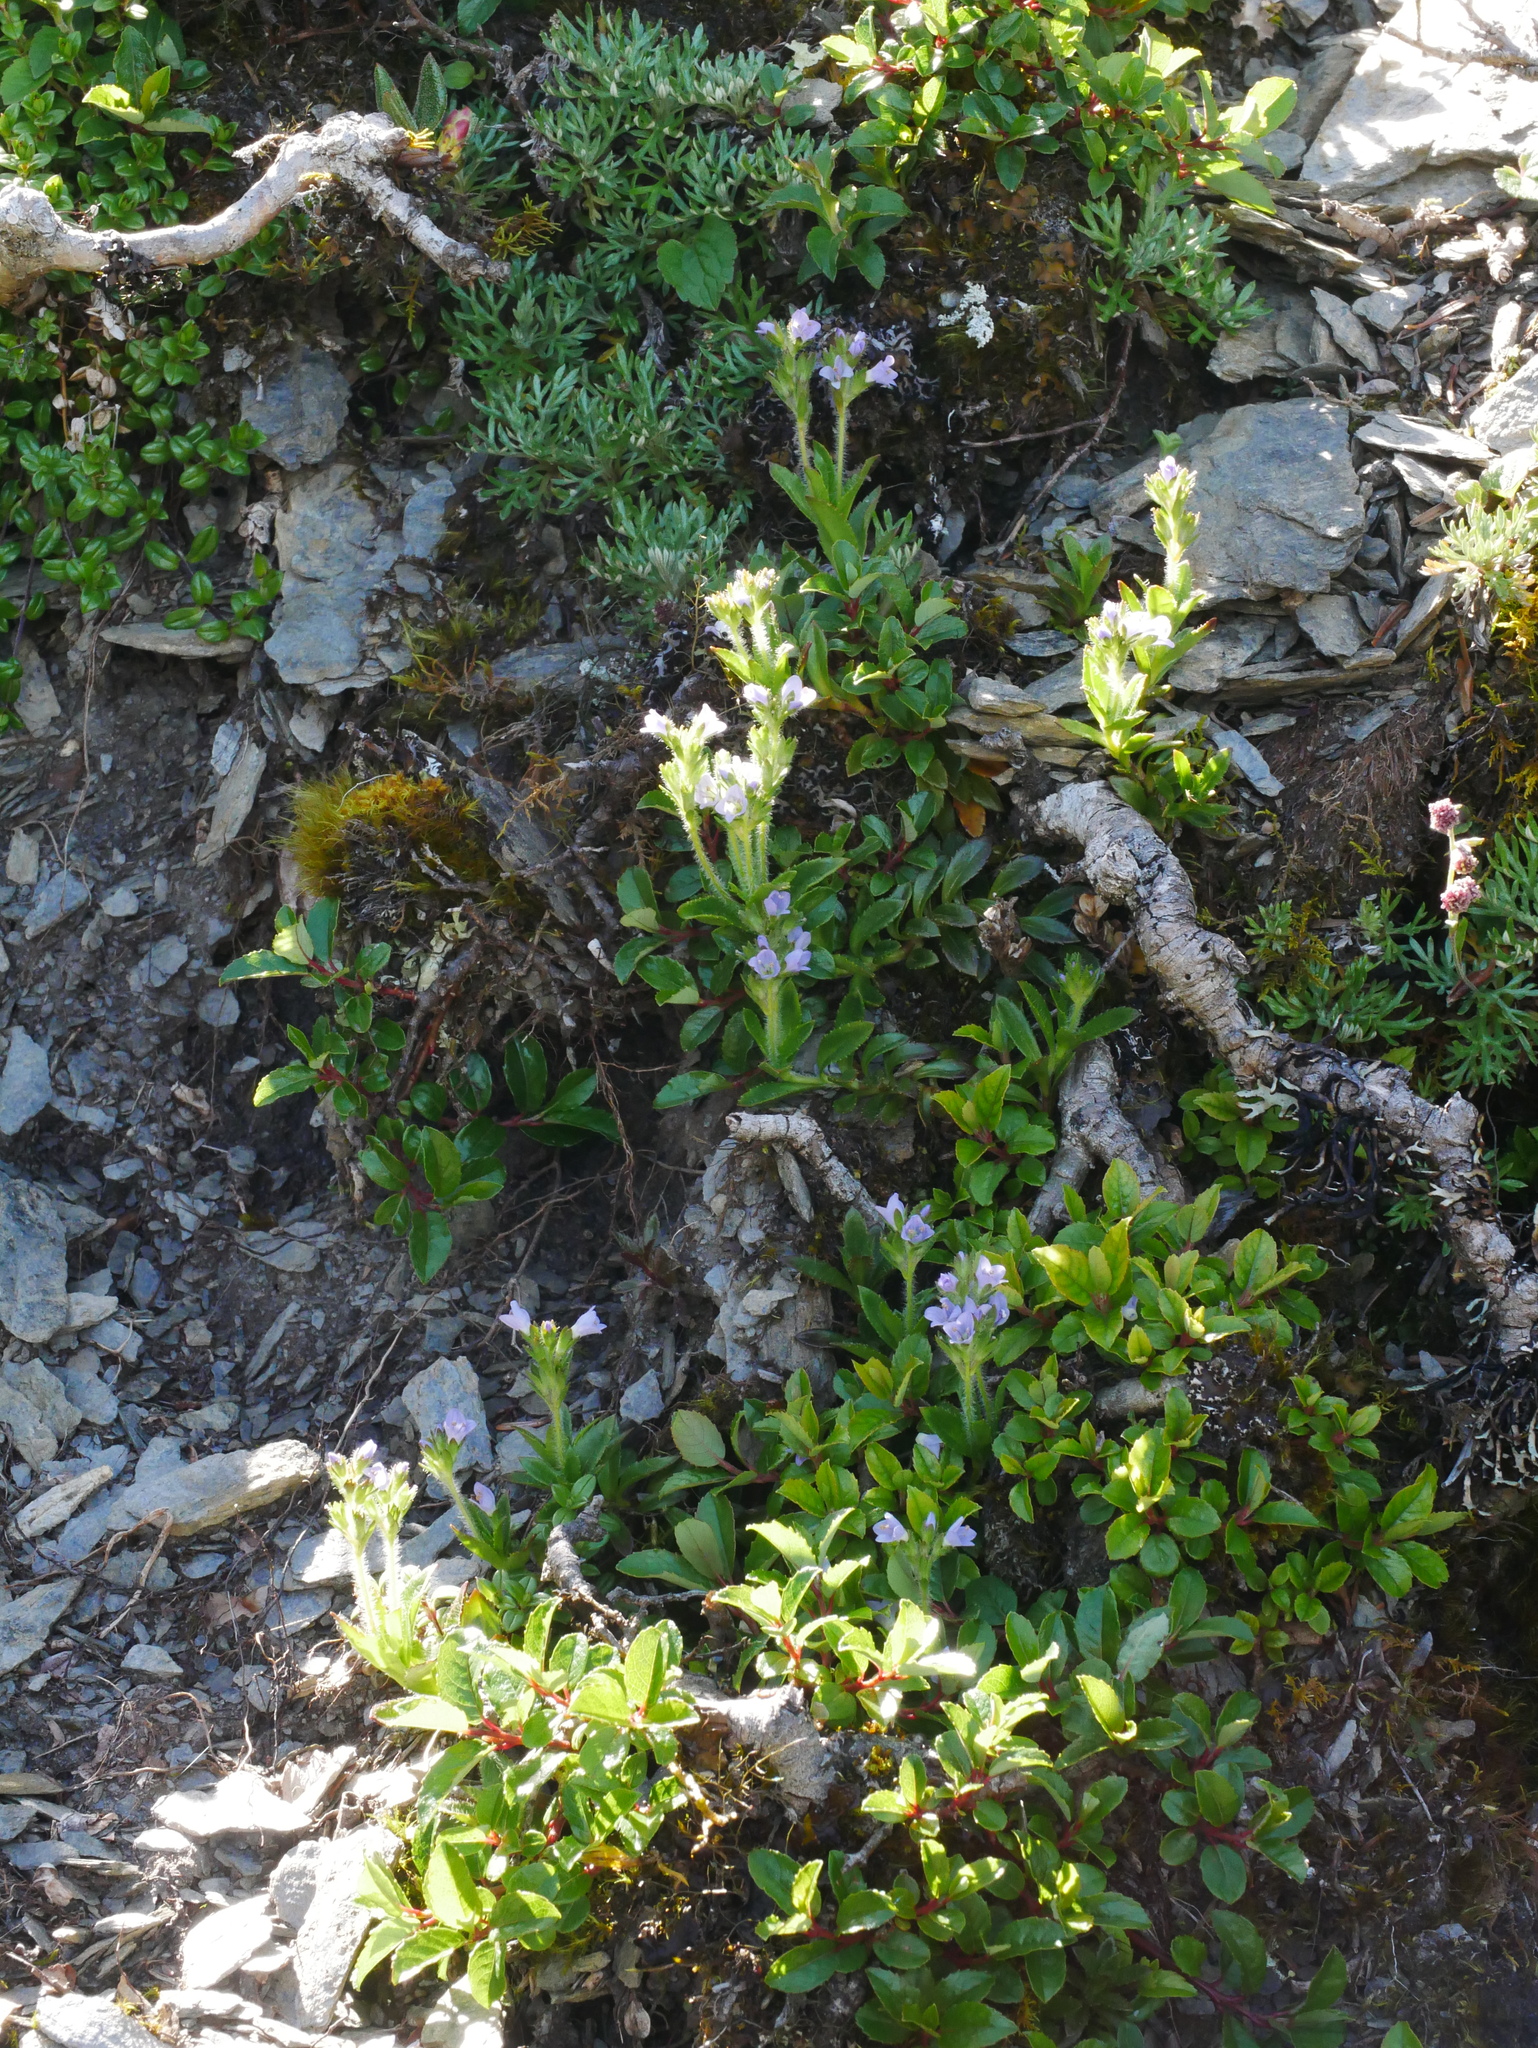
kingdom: Plantae
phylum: Tracheophyta
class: Magnoliopsida
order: Lamiales
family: Plantaginaceae
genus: Veronica
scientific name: Veronica morrisonicola
